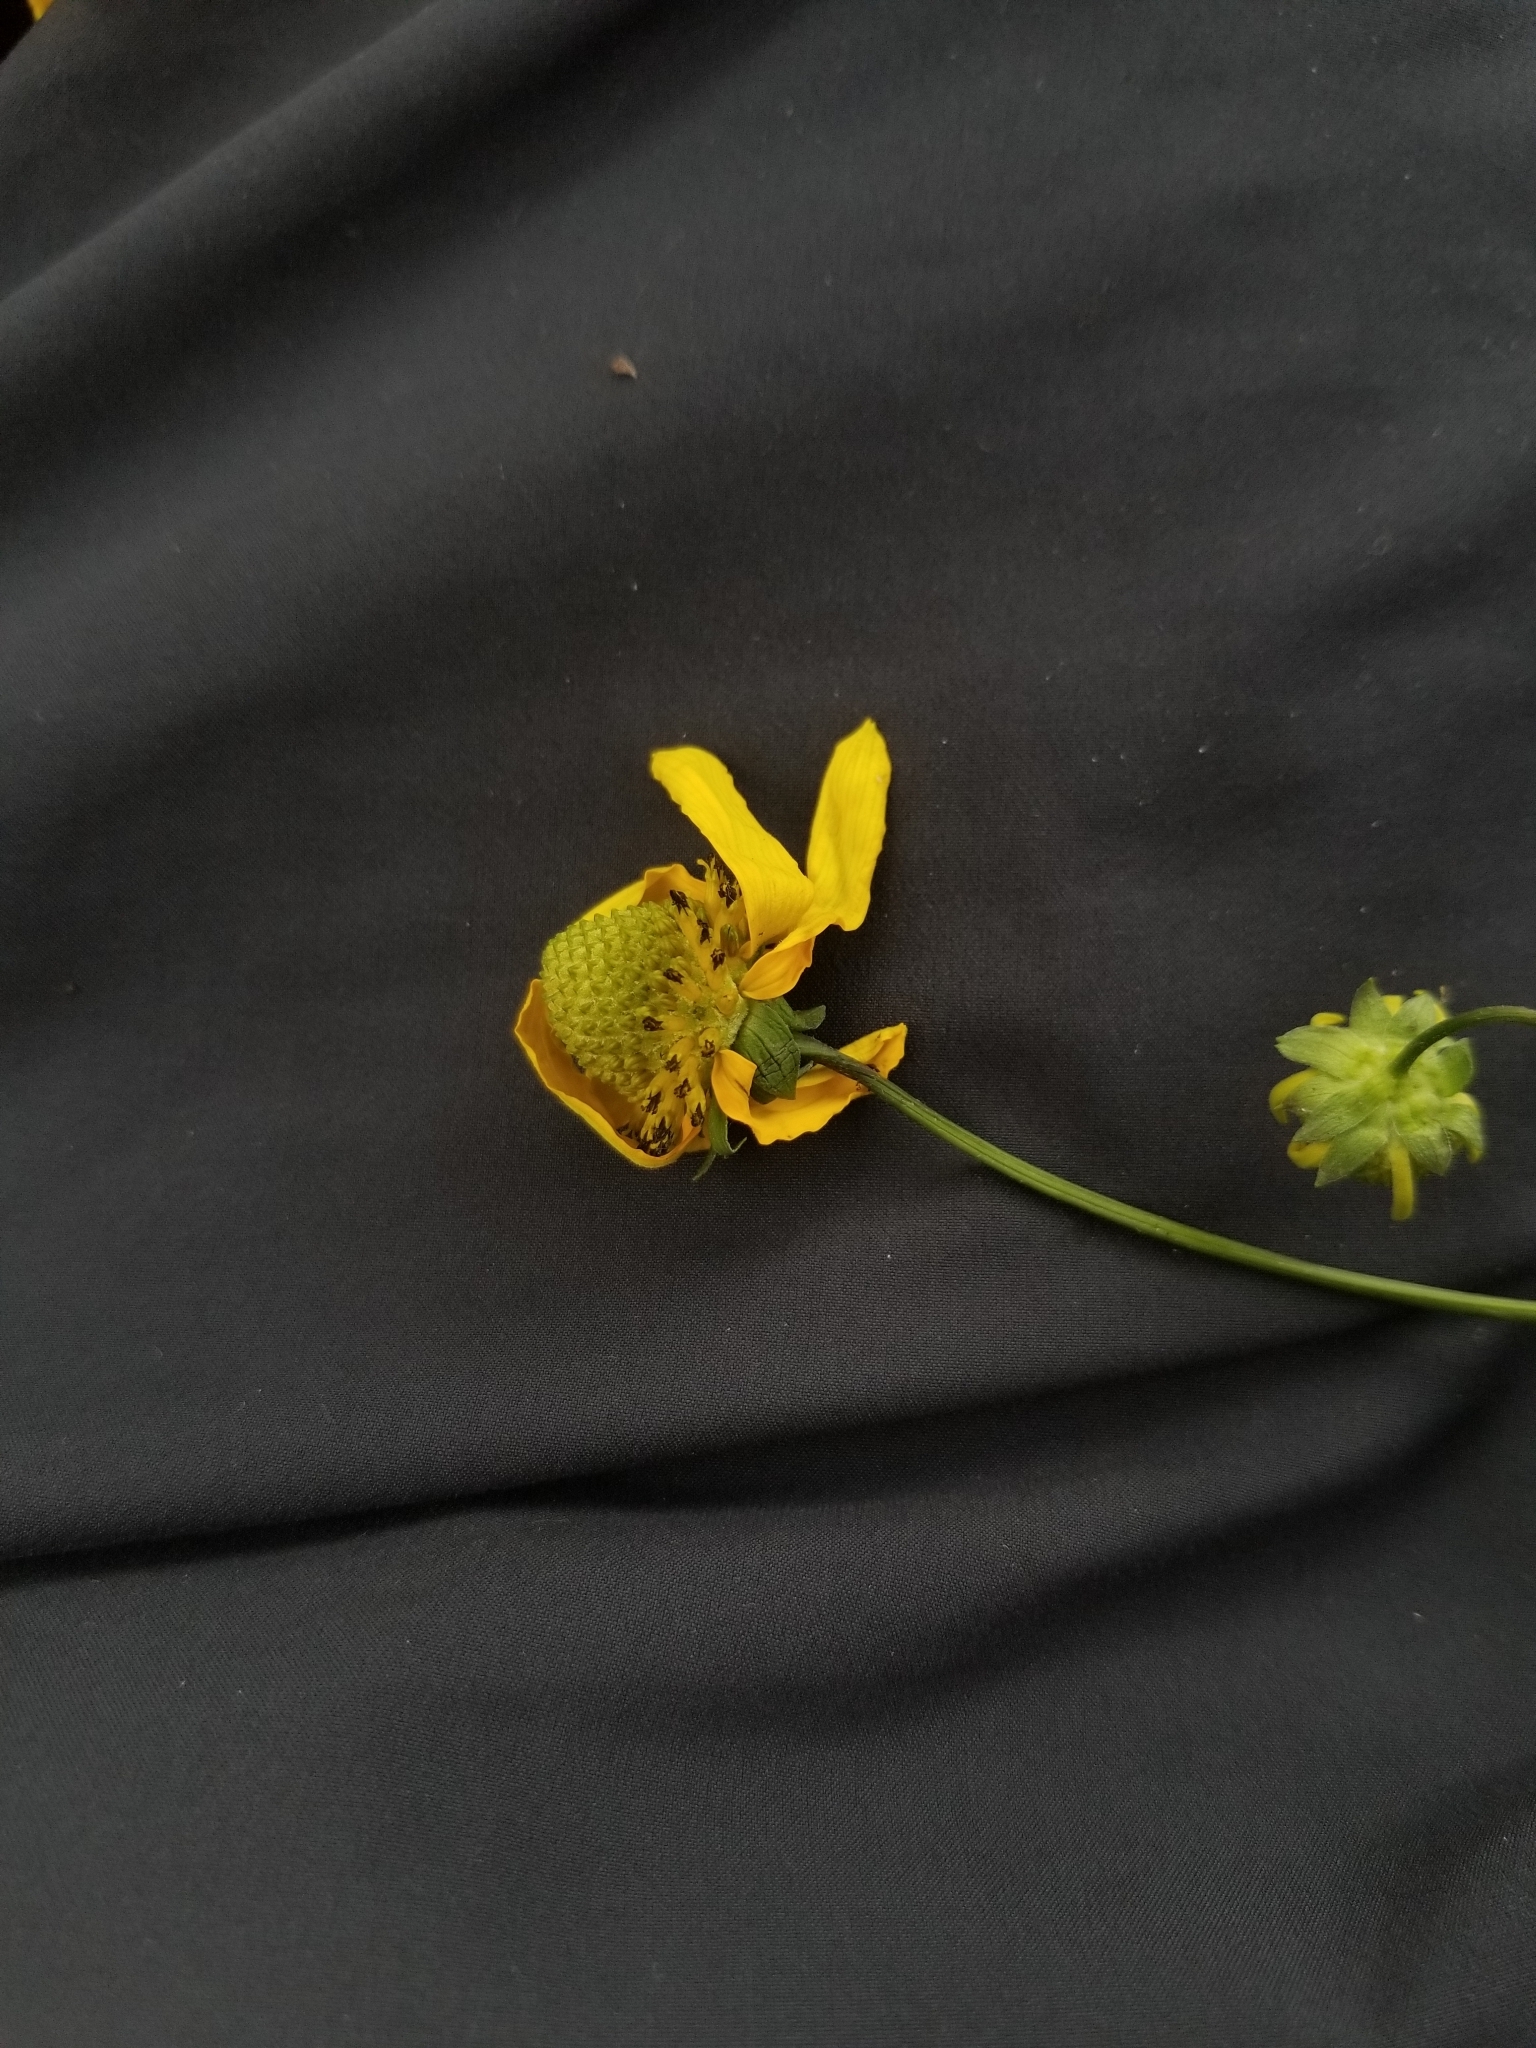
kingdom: Plantae
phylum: Tracheophyta
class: Magnoliopsida
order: Asterales
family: Asteraceae
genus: Rudbeckia
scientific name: Rudbeckia laciniata
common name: Coneflower
